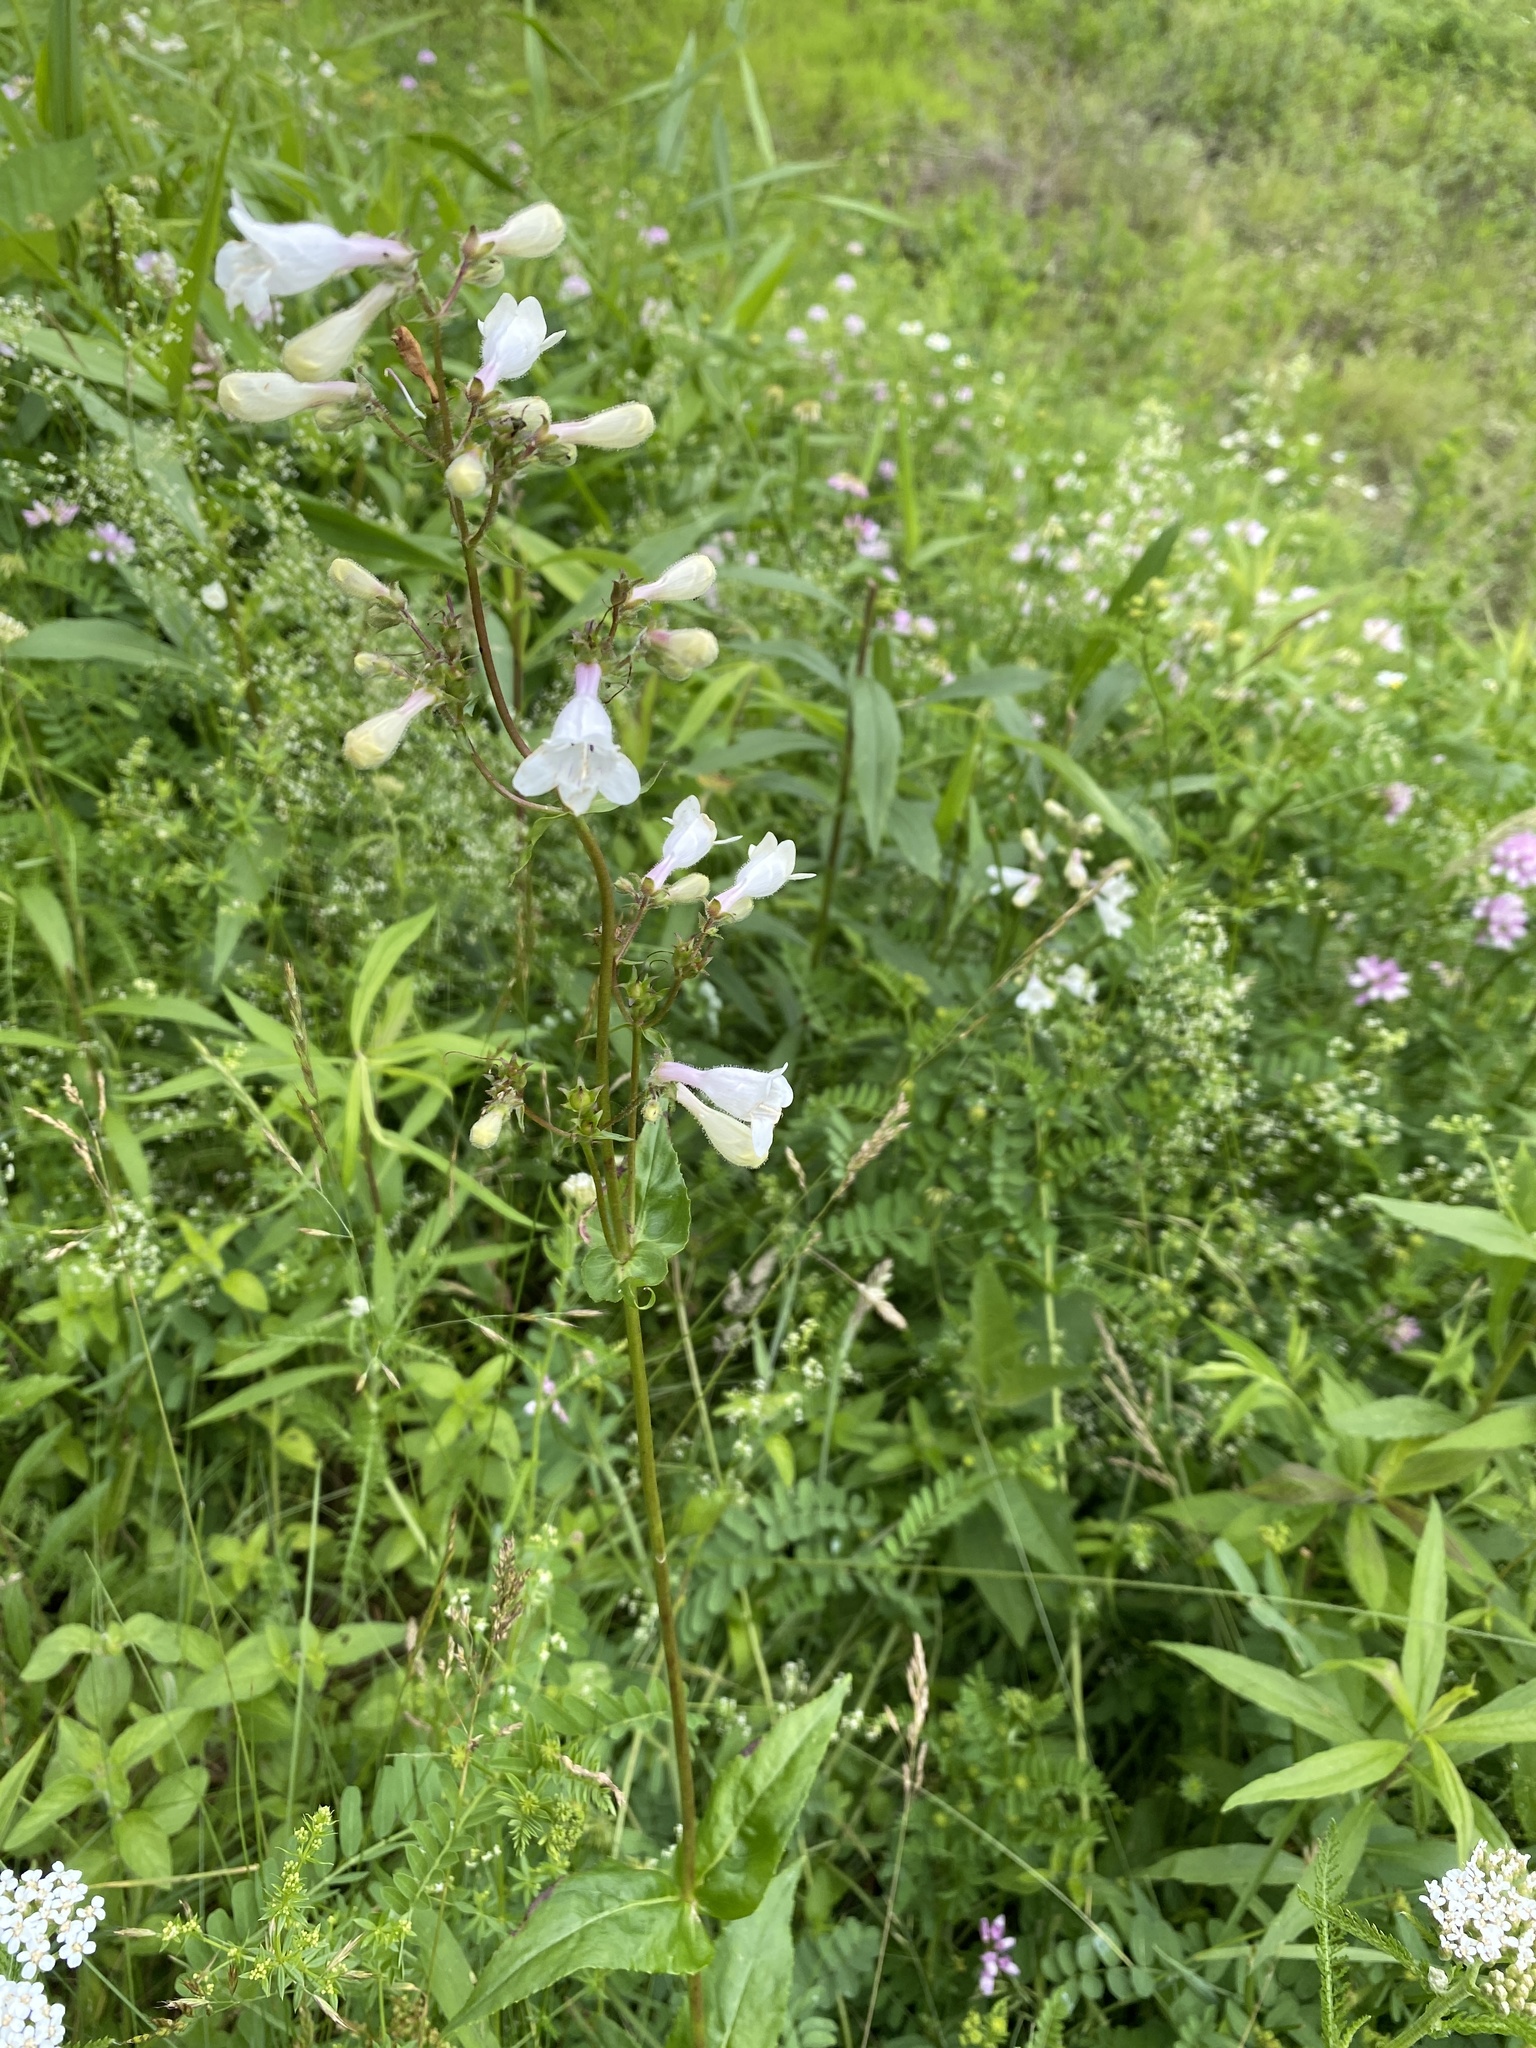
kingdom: Plantae
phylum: Tracheophyta
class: Magnoliopsida
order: Lamiales
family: Plantaginaceae
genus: Penstemon
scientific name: Penstemon digitalis
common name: Foxglove beardtongue
